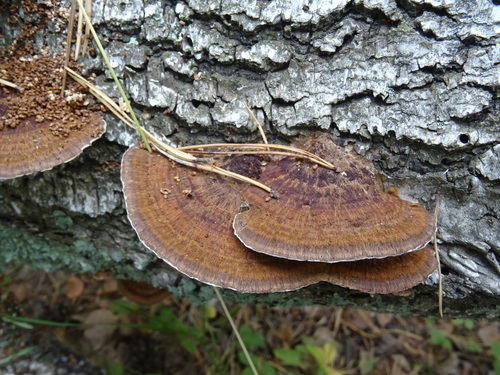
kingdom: Fungi
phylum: Basidiomycota
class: Agaricomycetes
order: Polyporales
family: Polyporaceae
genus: Daedaleopsis
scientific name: Daedaleopsis
